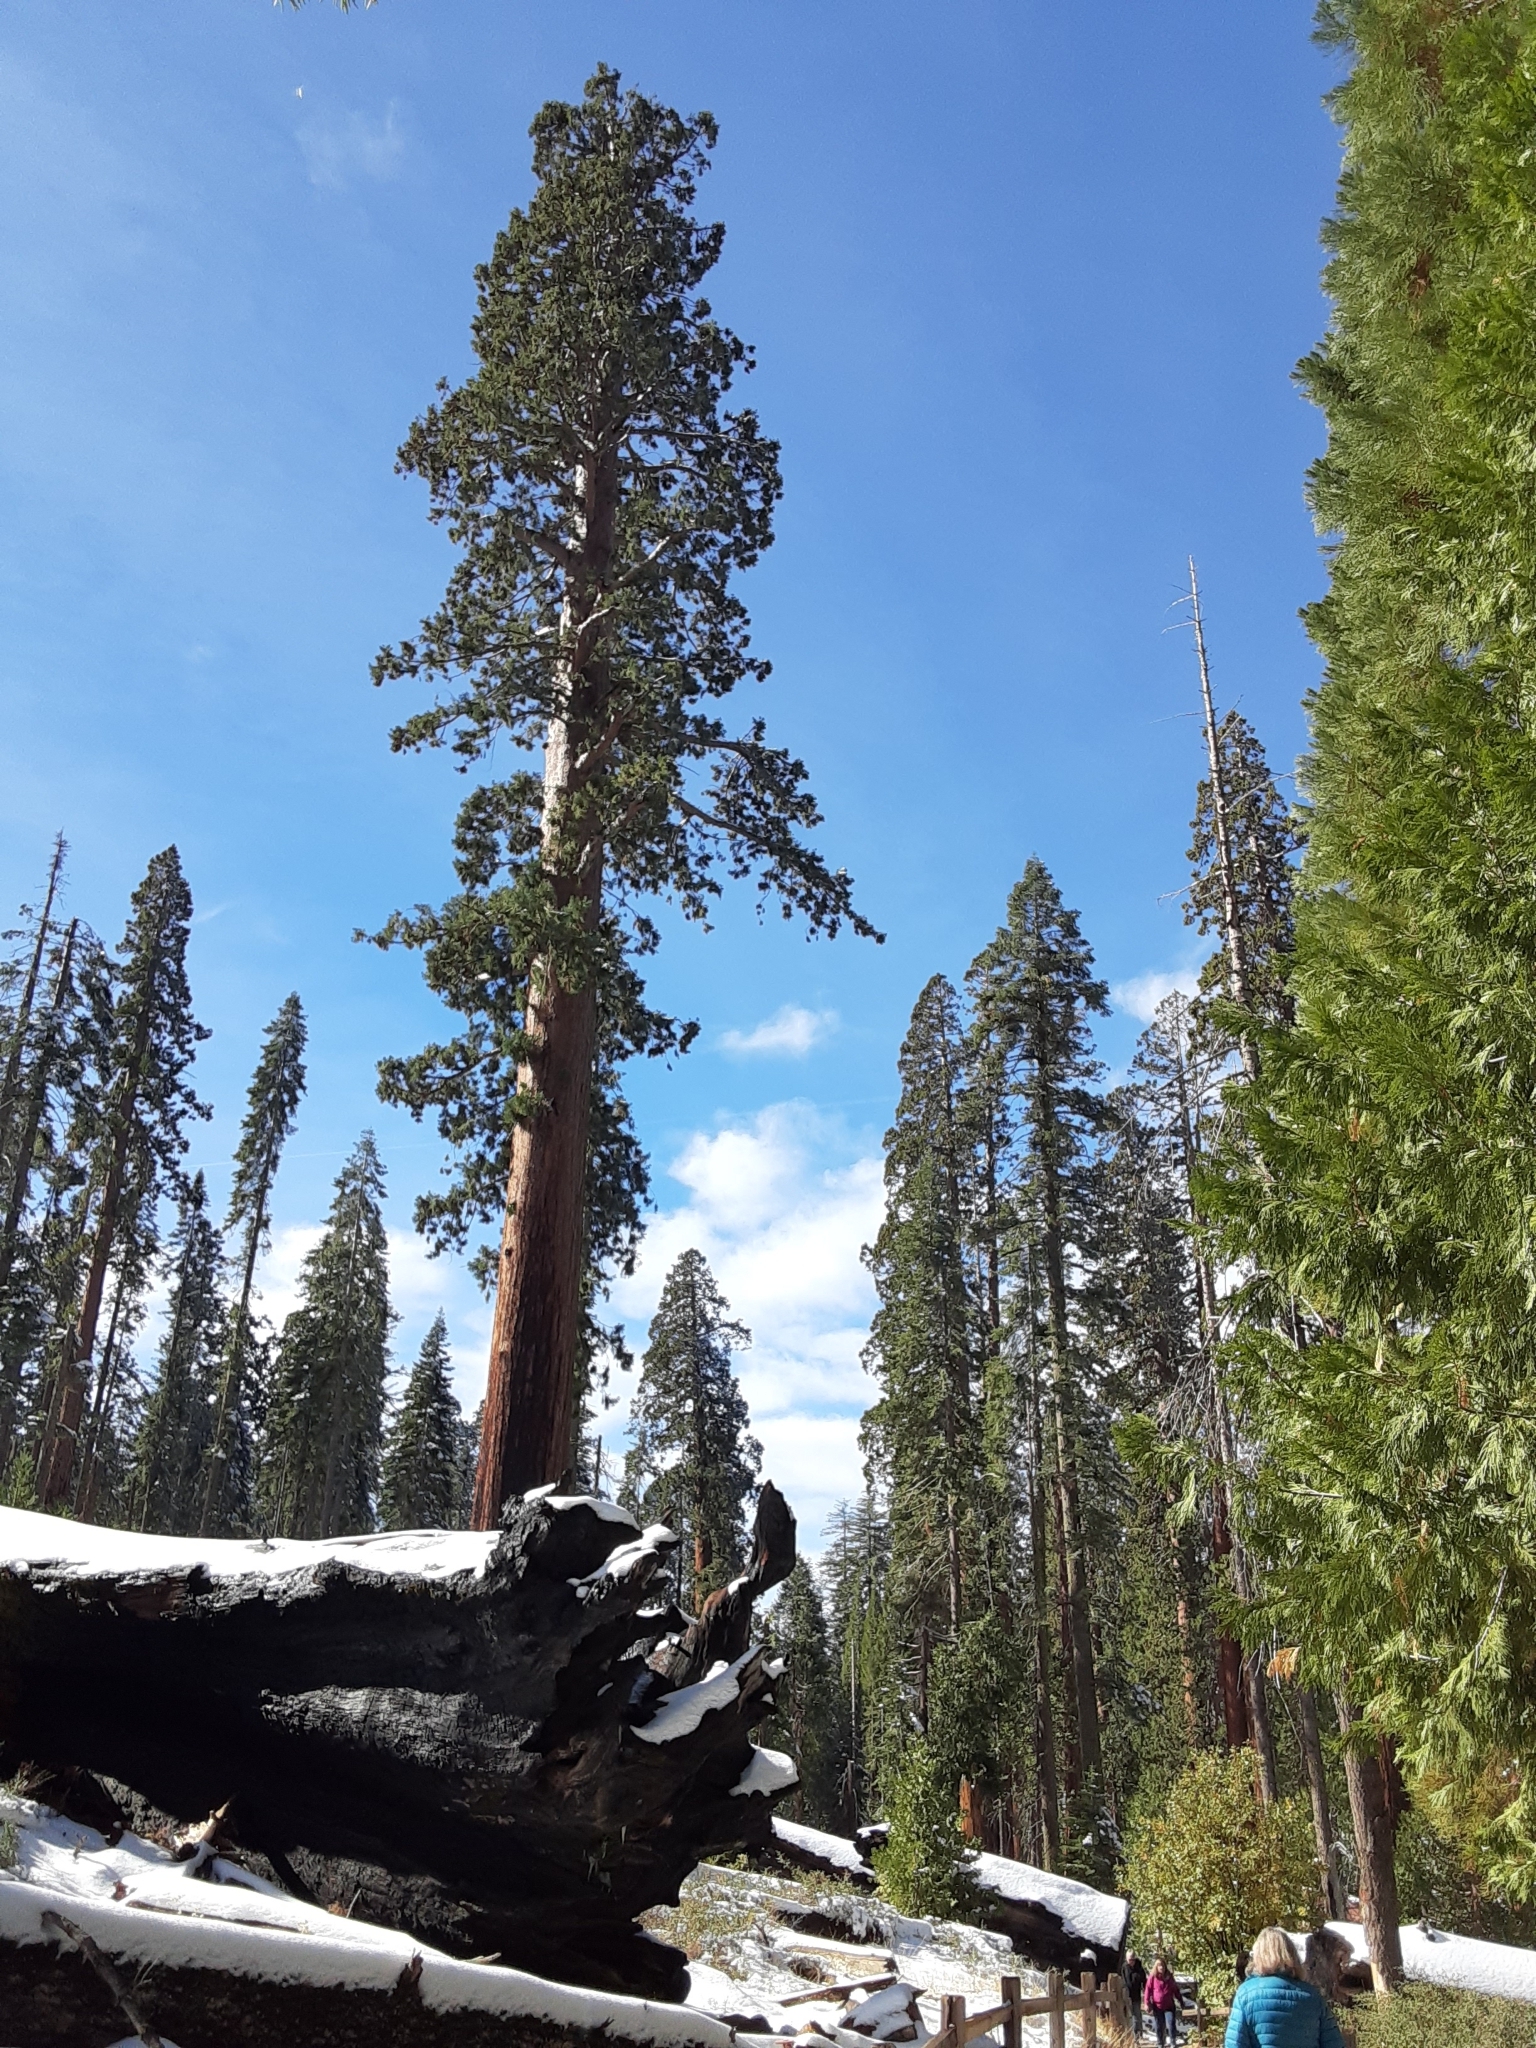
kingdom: Plantae
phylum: Tracheophyta
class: Pinopsida
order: Pinales
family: Cupressaceae
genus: Sequoiadendron
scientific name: Sequoiadendron giganteum
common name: Wellingtonia
